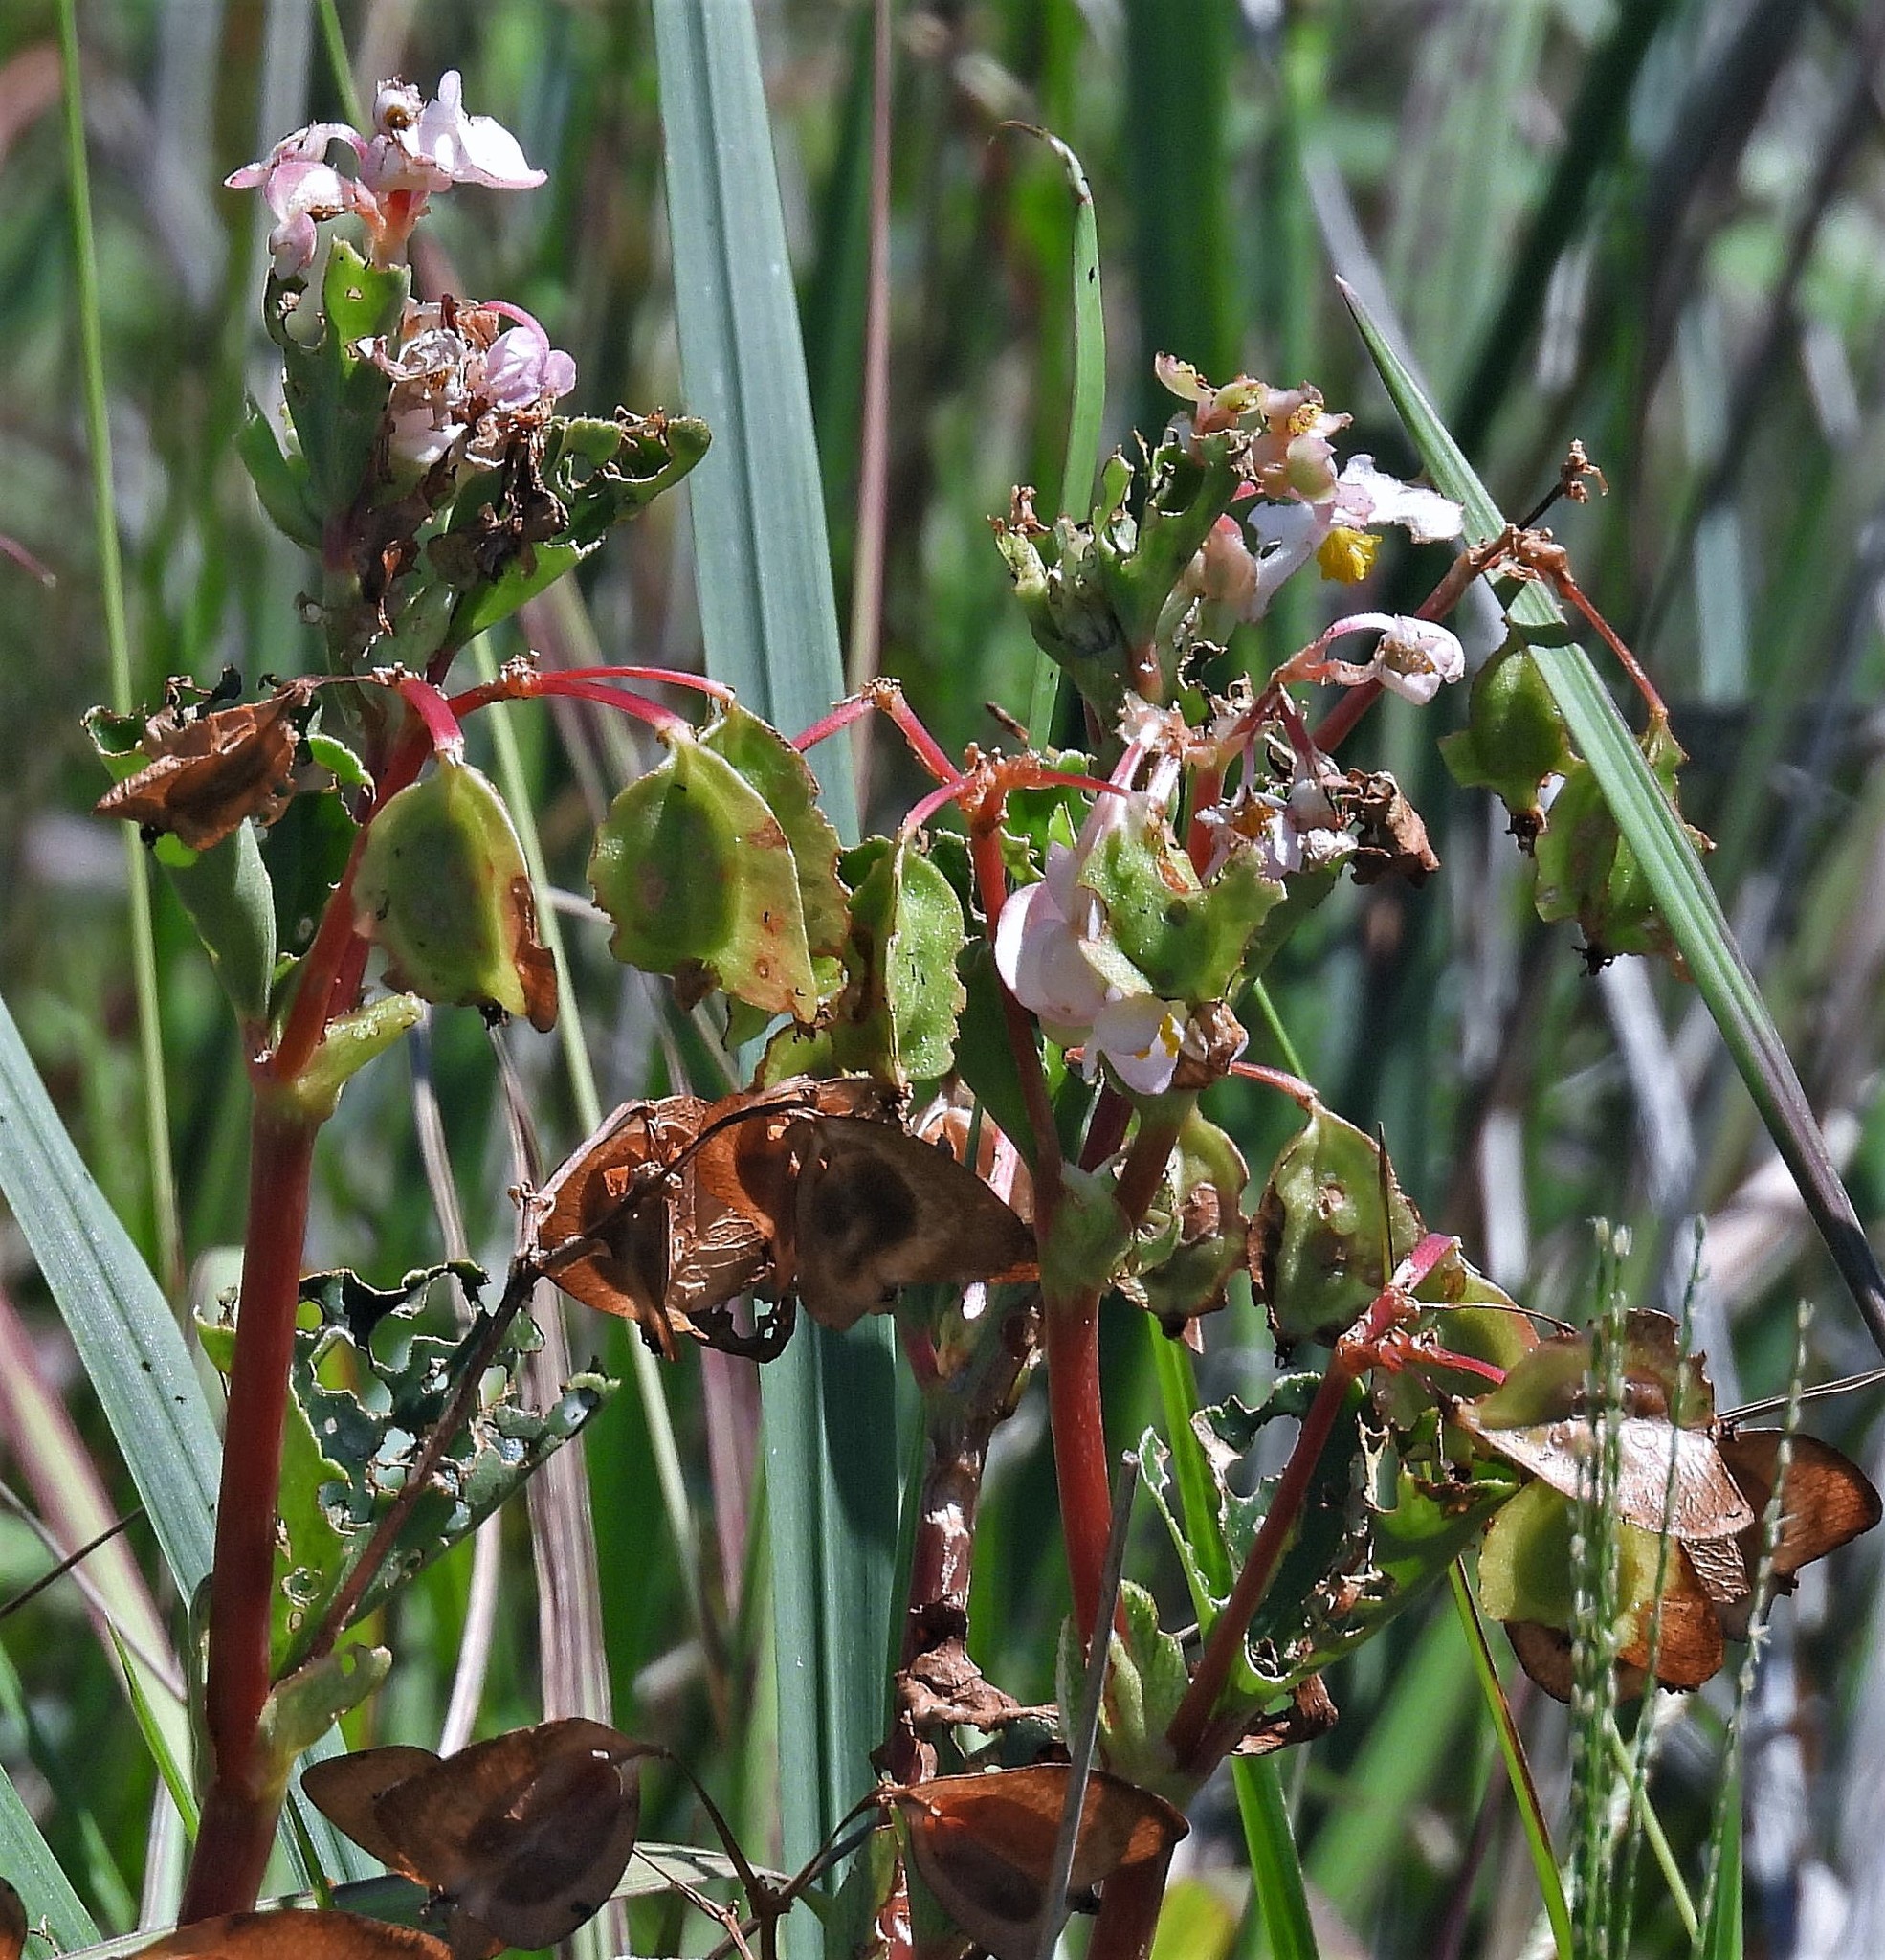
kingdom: Plantae
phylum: Tracheophyta
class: Magnoliopsida
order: Cucurbitales
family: Begoniaceae
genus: Begonia
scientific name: Begonia cucullata
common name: Clubbed begonia
